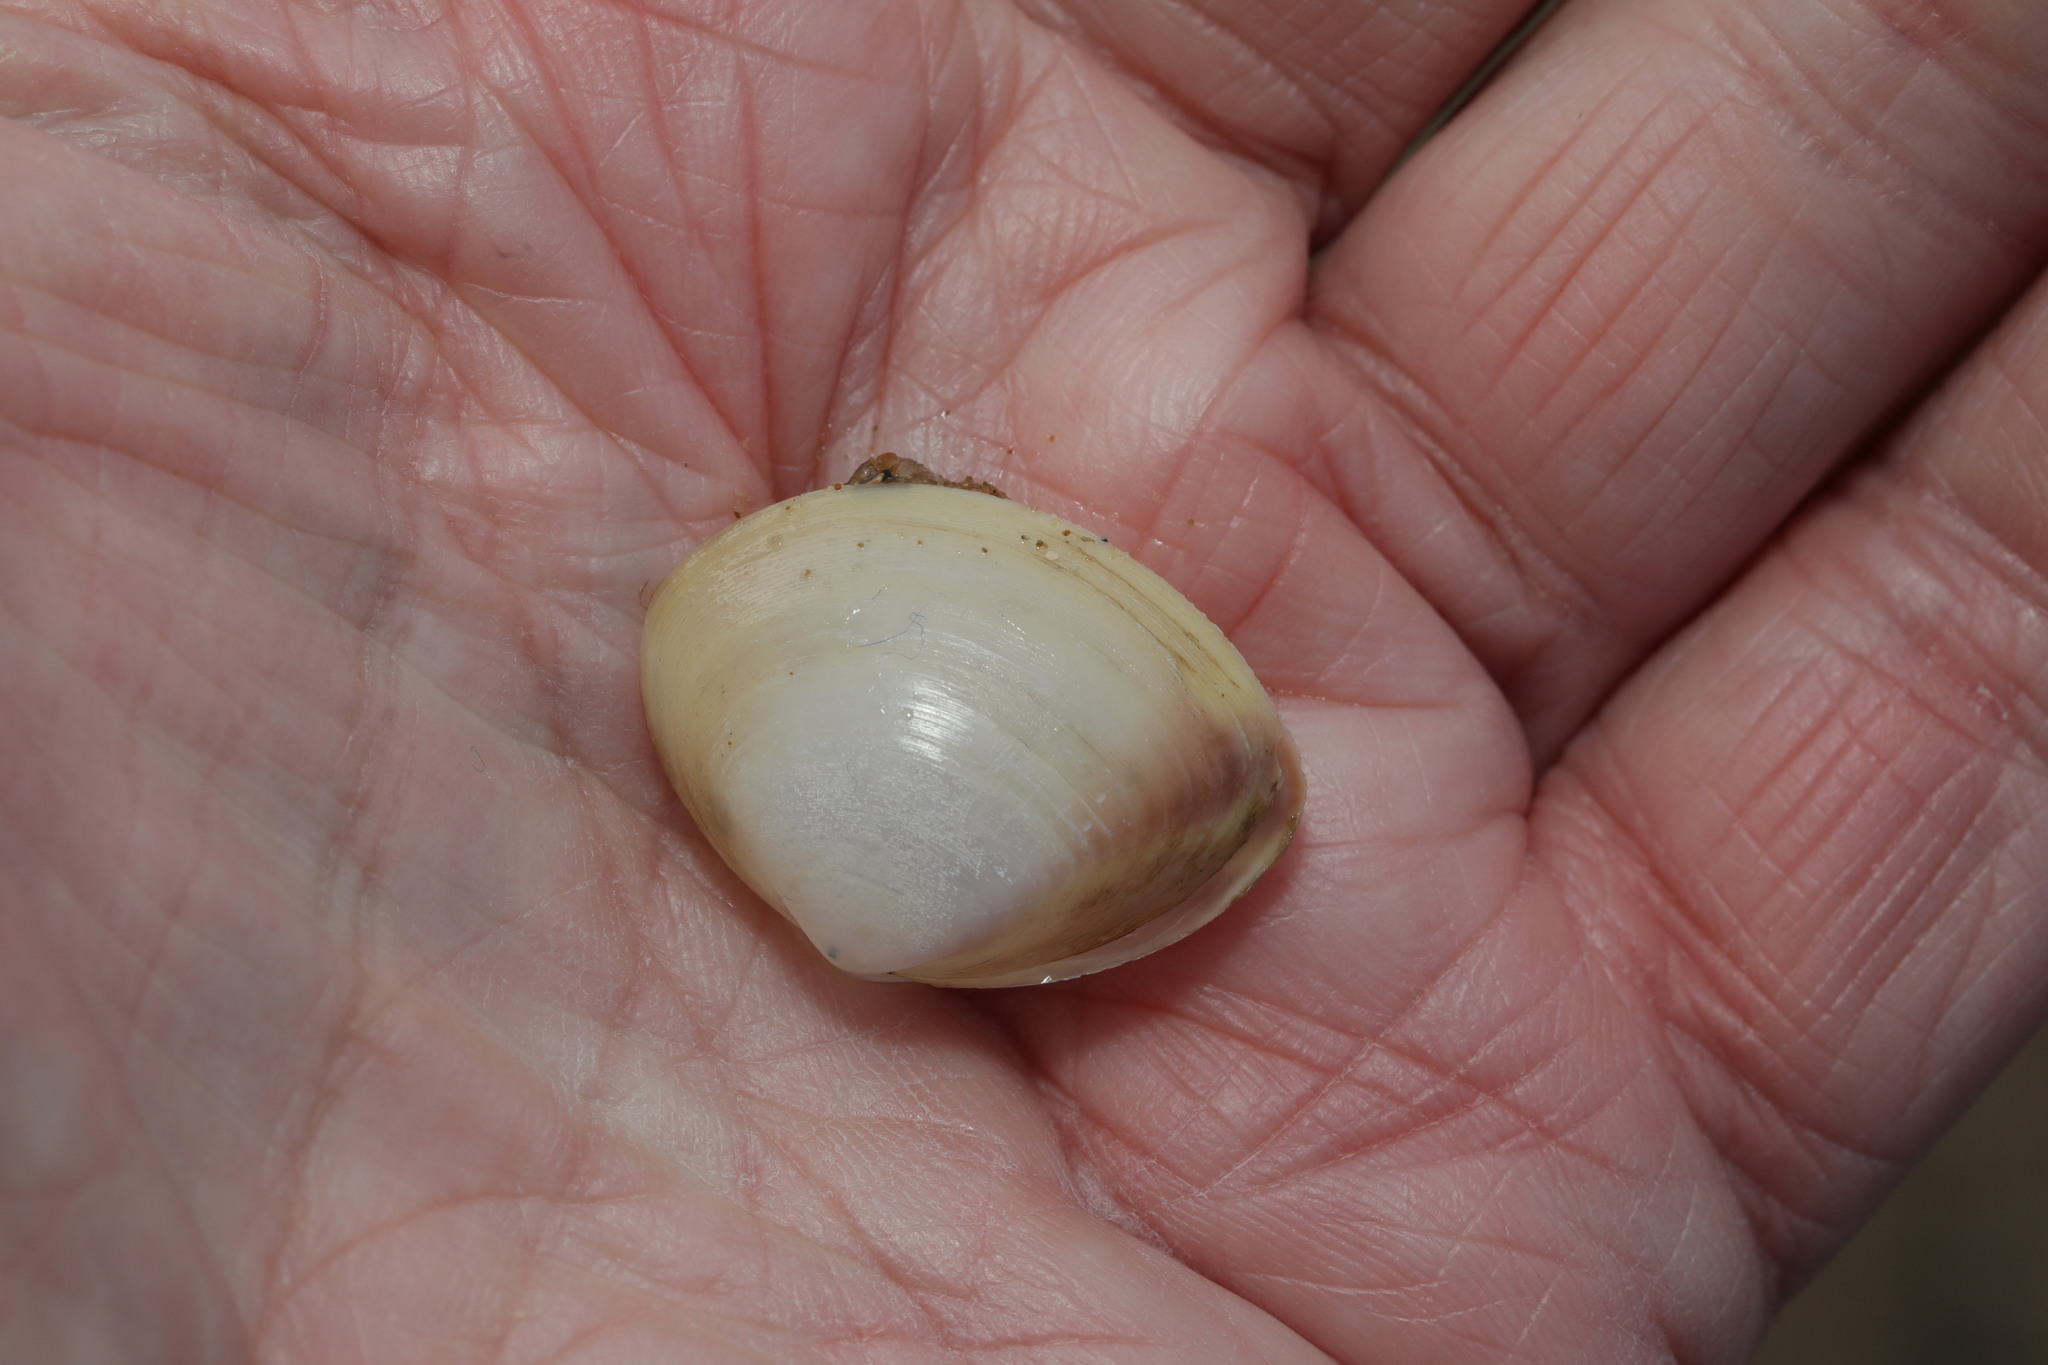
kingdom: Animalia
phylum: Mollusca
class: Bivalvia
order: Venerida
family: Mactridae
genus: Mactra
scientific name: Mactra stultorum
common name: Rayed trough shell
